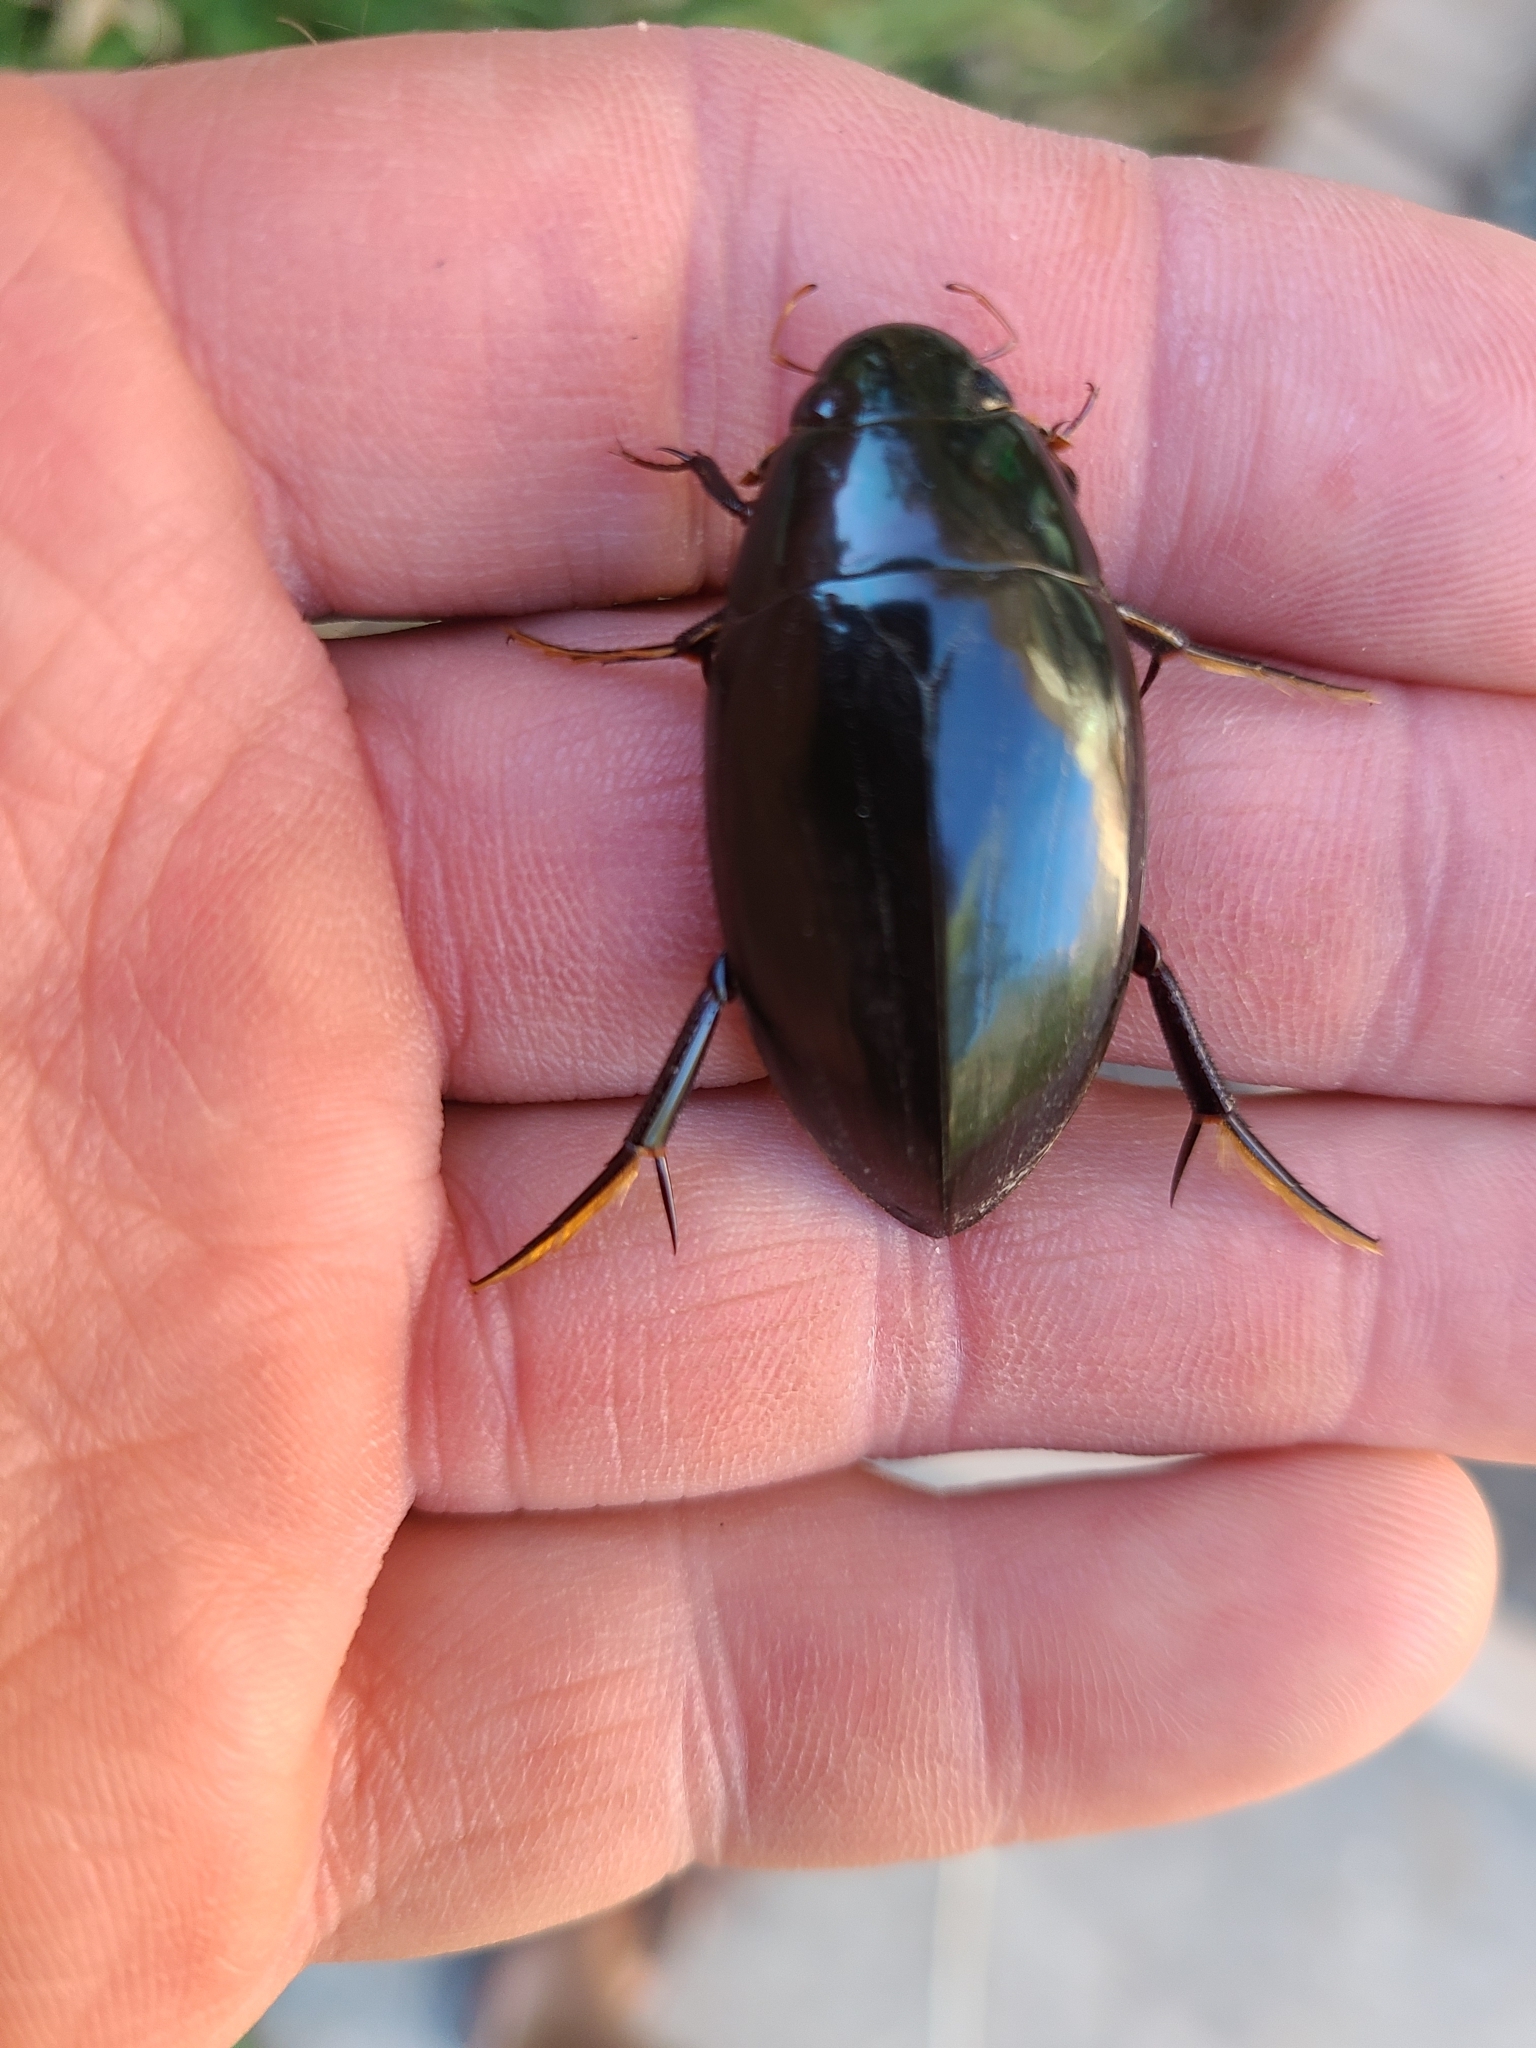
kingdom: Animalia
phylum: Arthropoda
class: Insecta
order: Coleoptera
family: Hydrophilidae
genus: Hydrophilus
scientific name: Hydrophilus triangularis
